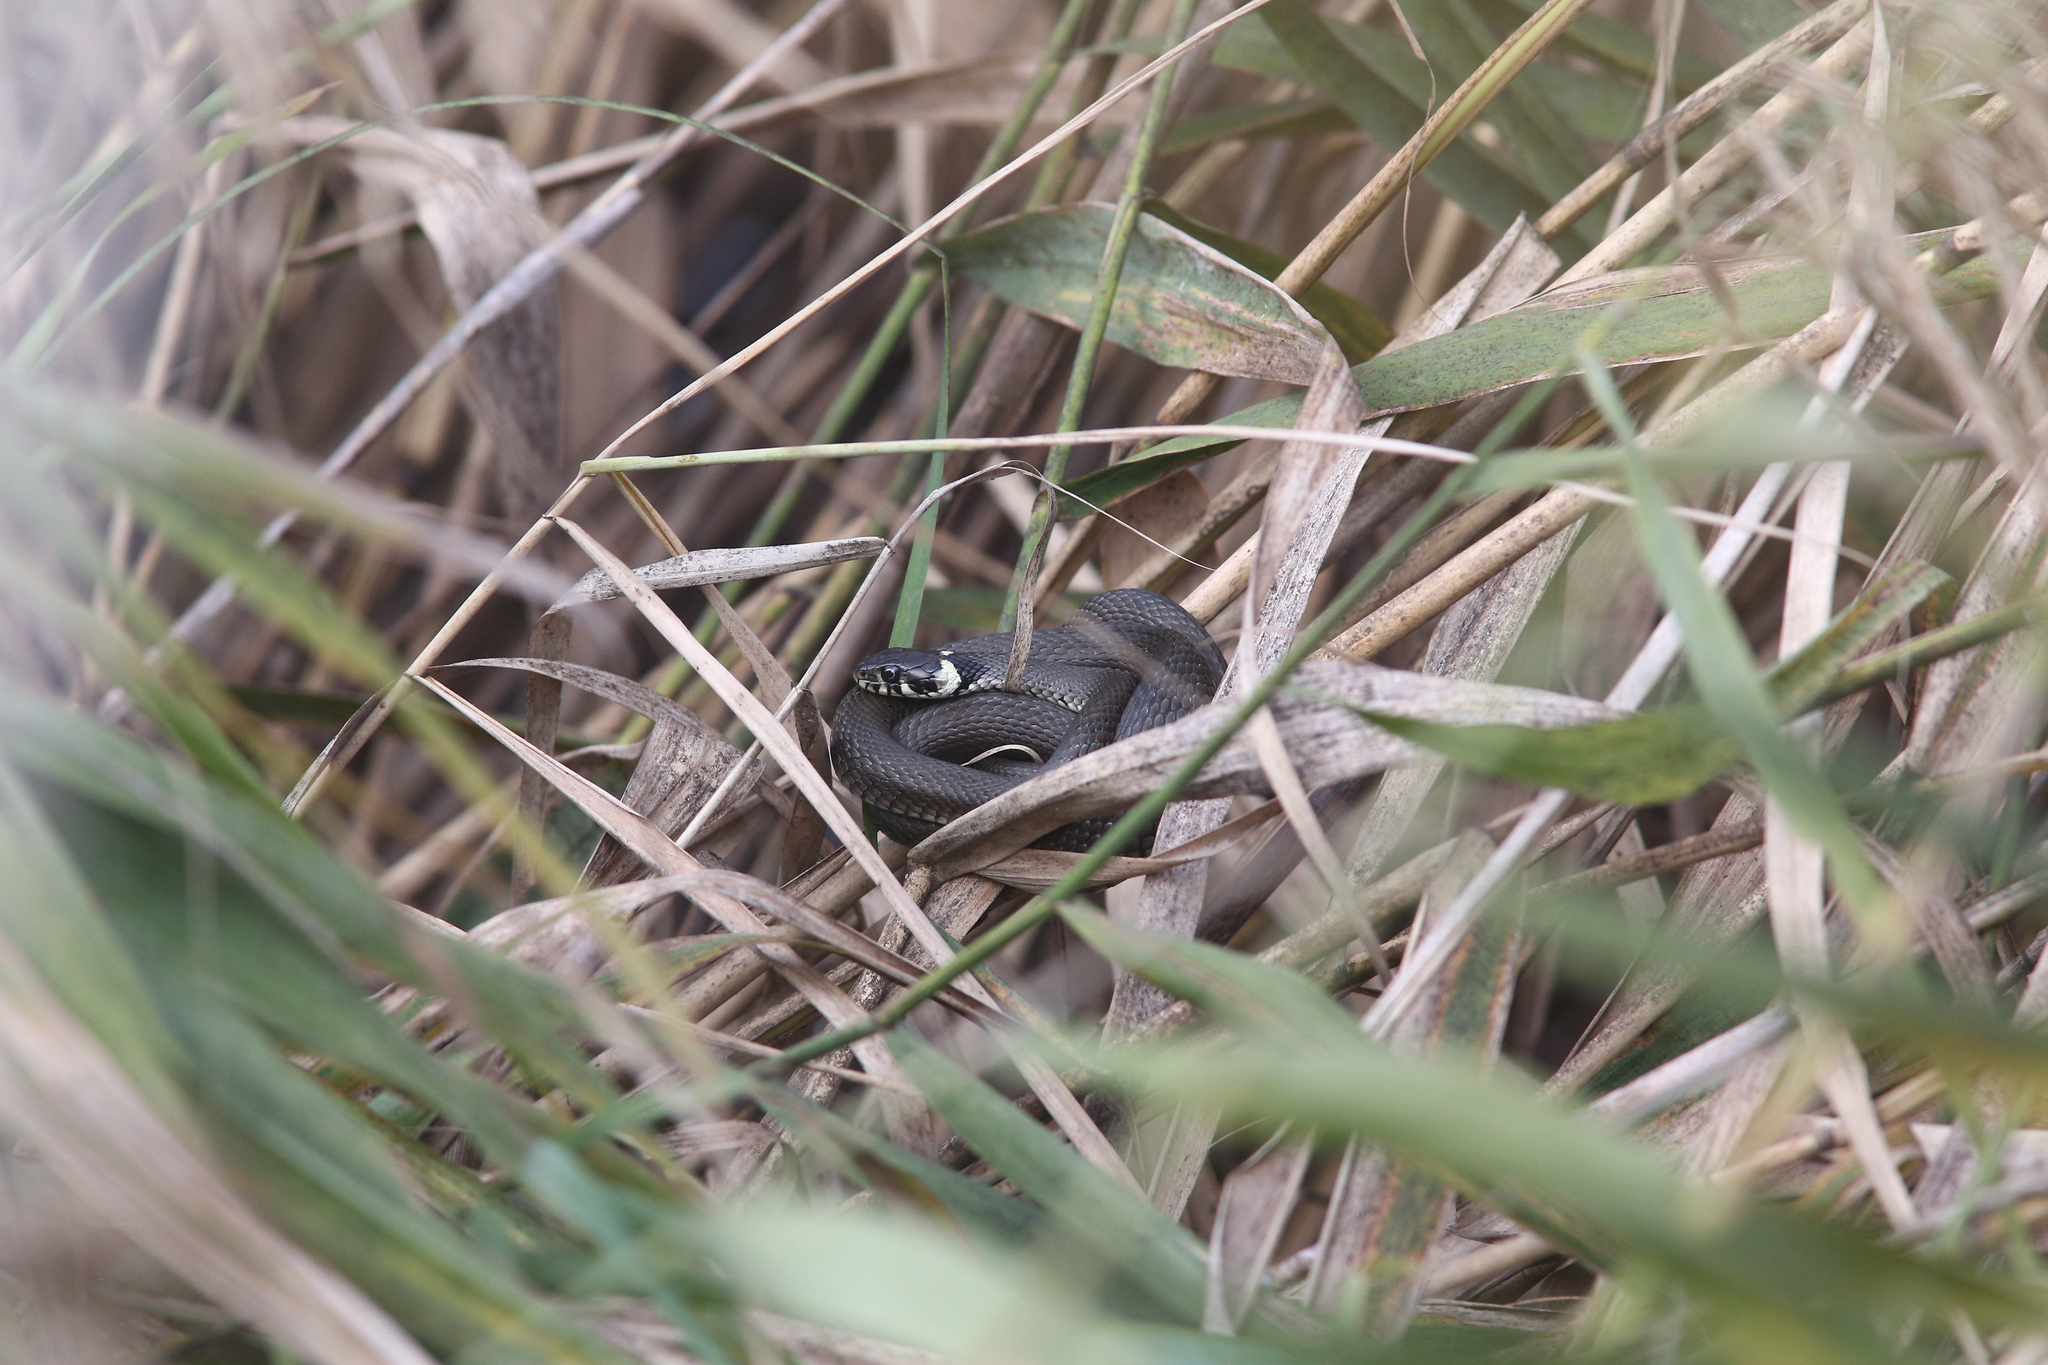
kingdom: Animalia
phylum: Chordata
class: Squamata
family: Colubridae
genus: Natrix
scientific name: Natrix natrix
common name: Grass snake
